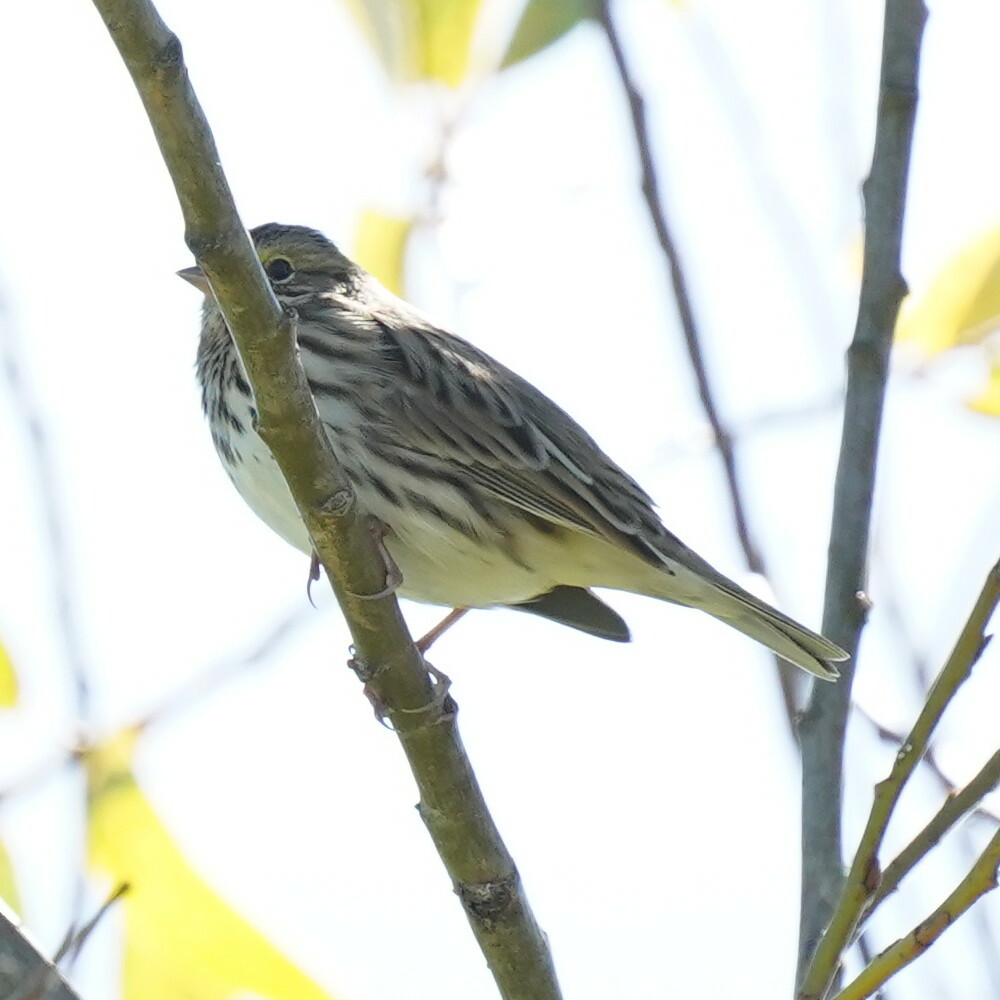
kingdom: Animalia
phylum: Chordata
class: Aves
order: Passeriformes
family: Passerellidae
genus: Passerculus
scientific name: Passerculus sandwichensis
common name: Savannah sparrow
